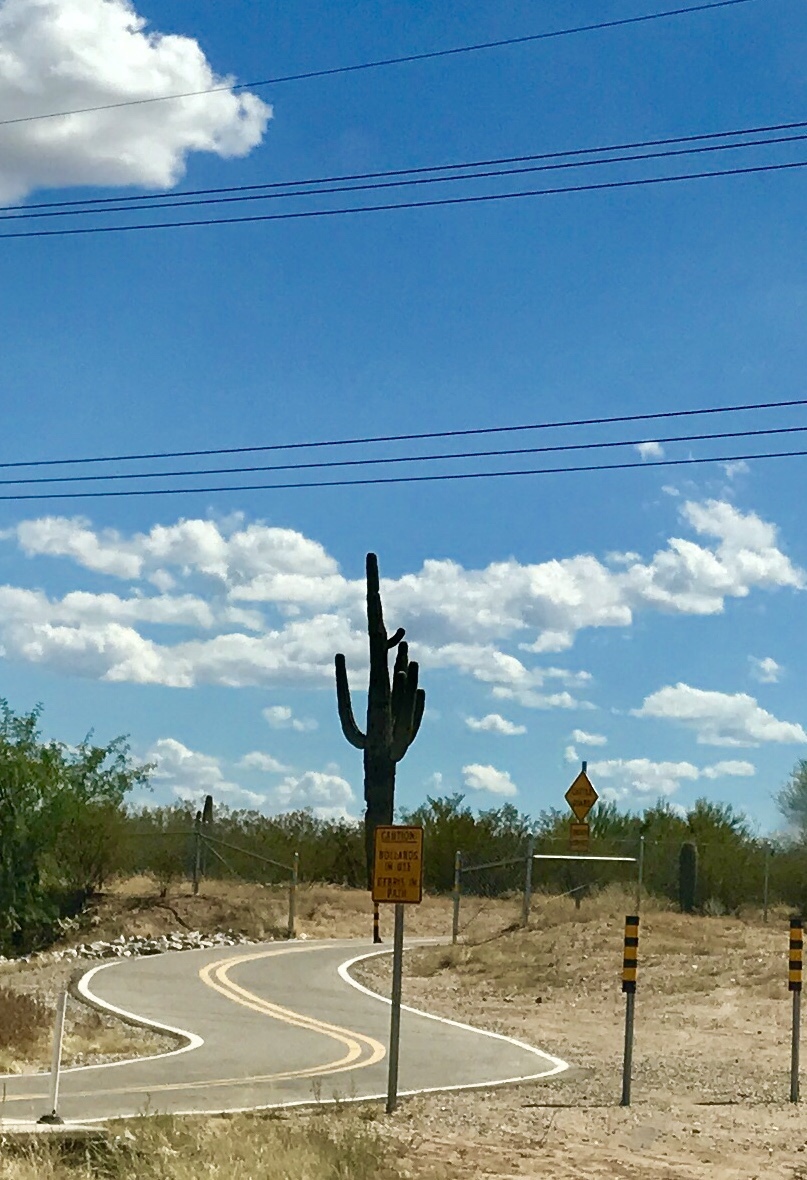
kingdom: Plantae
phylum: Tracheophyta
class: Magnoliopsida
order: Caryophyllales
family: Cactaceae
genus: Carnegiea
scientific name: Carnegiea gigantea
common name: Saguaro
